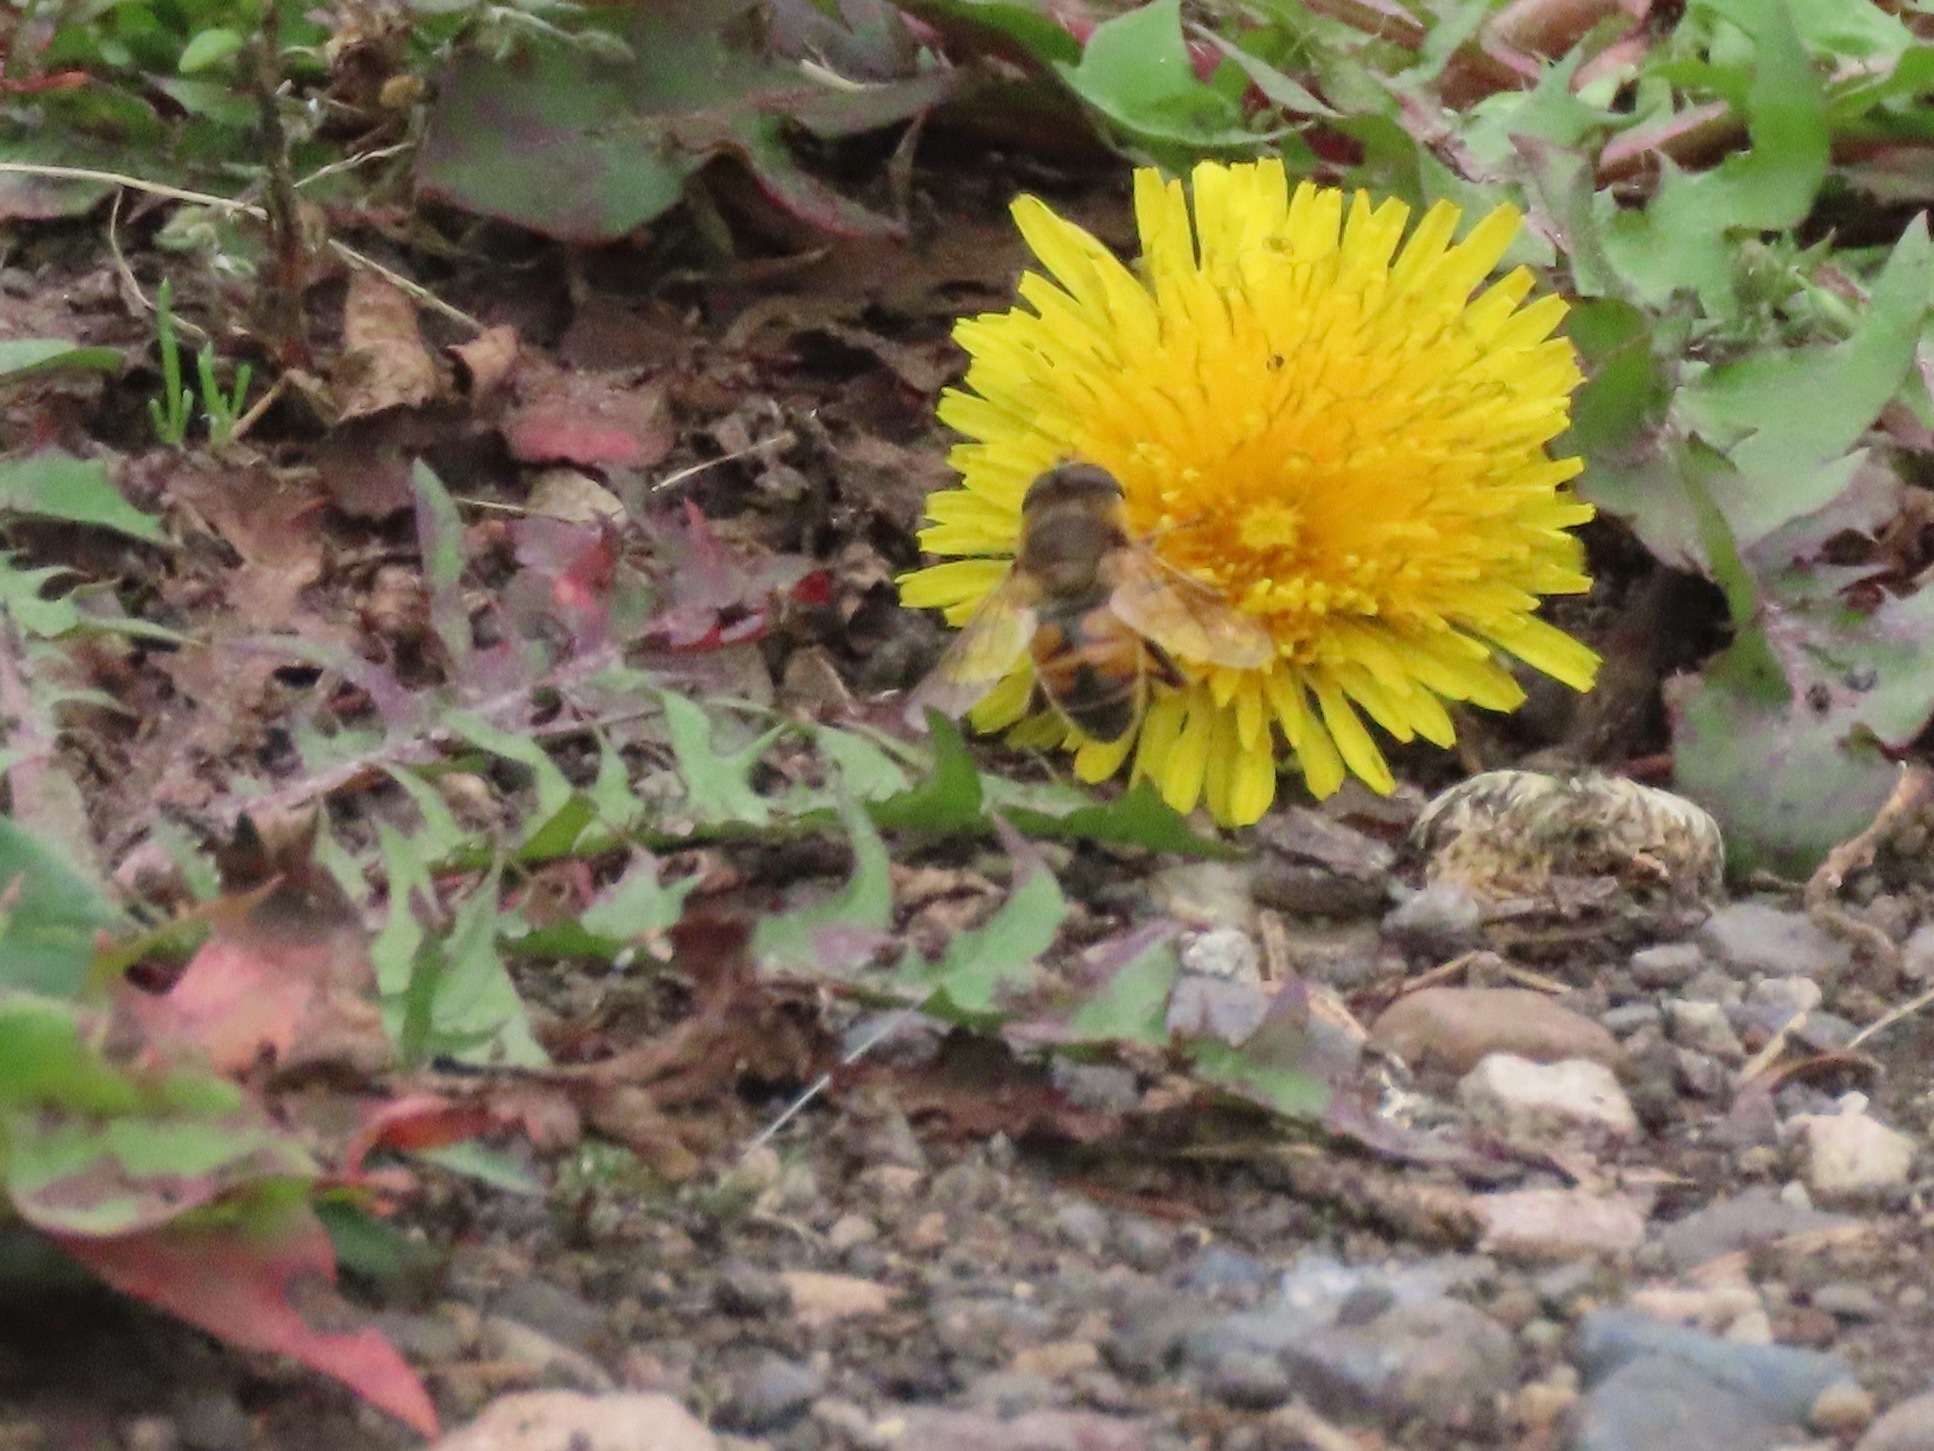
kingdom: Animalia
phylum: Arthropoda
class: Insecta
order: Diptera
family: Syrphidae
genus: Eristalis
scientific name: Eristalis tenax
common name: Drone fly
